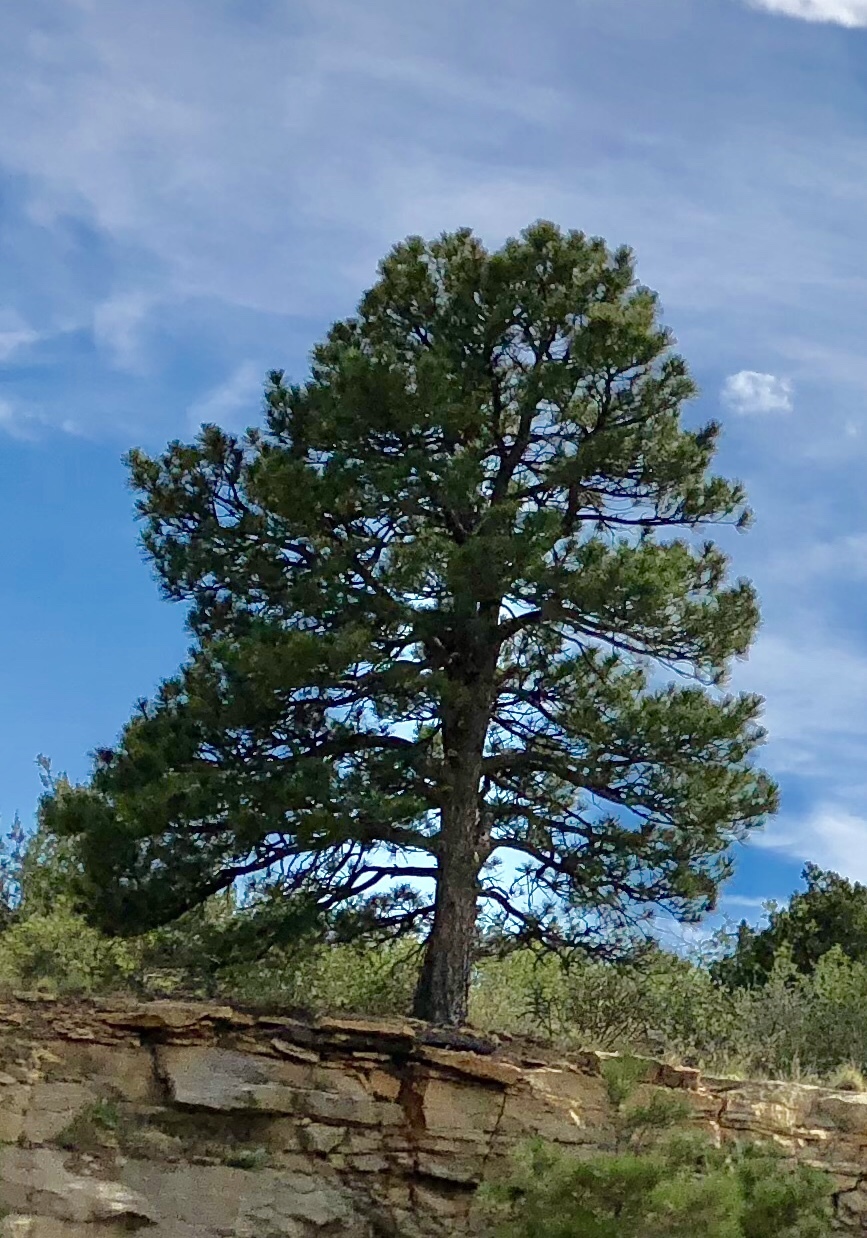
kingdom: Plantae
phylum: Tracheophyta
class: Pinopsida
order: Pinales
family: Pinaceae
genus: Pinus
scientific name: Pinus ponderosa
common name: Western yellow-pine
